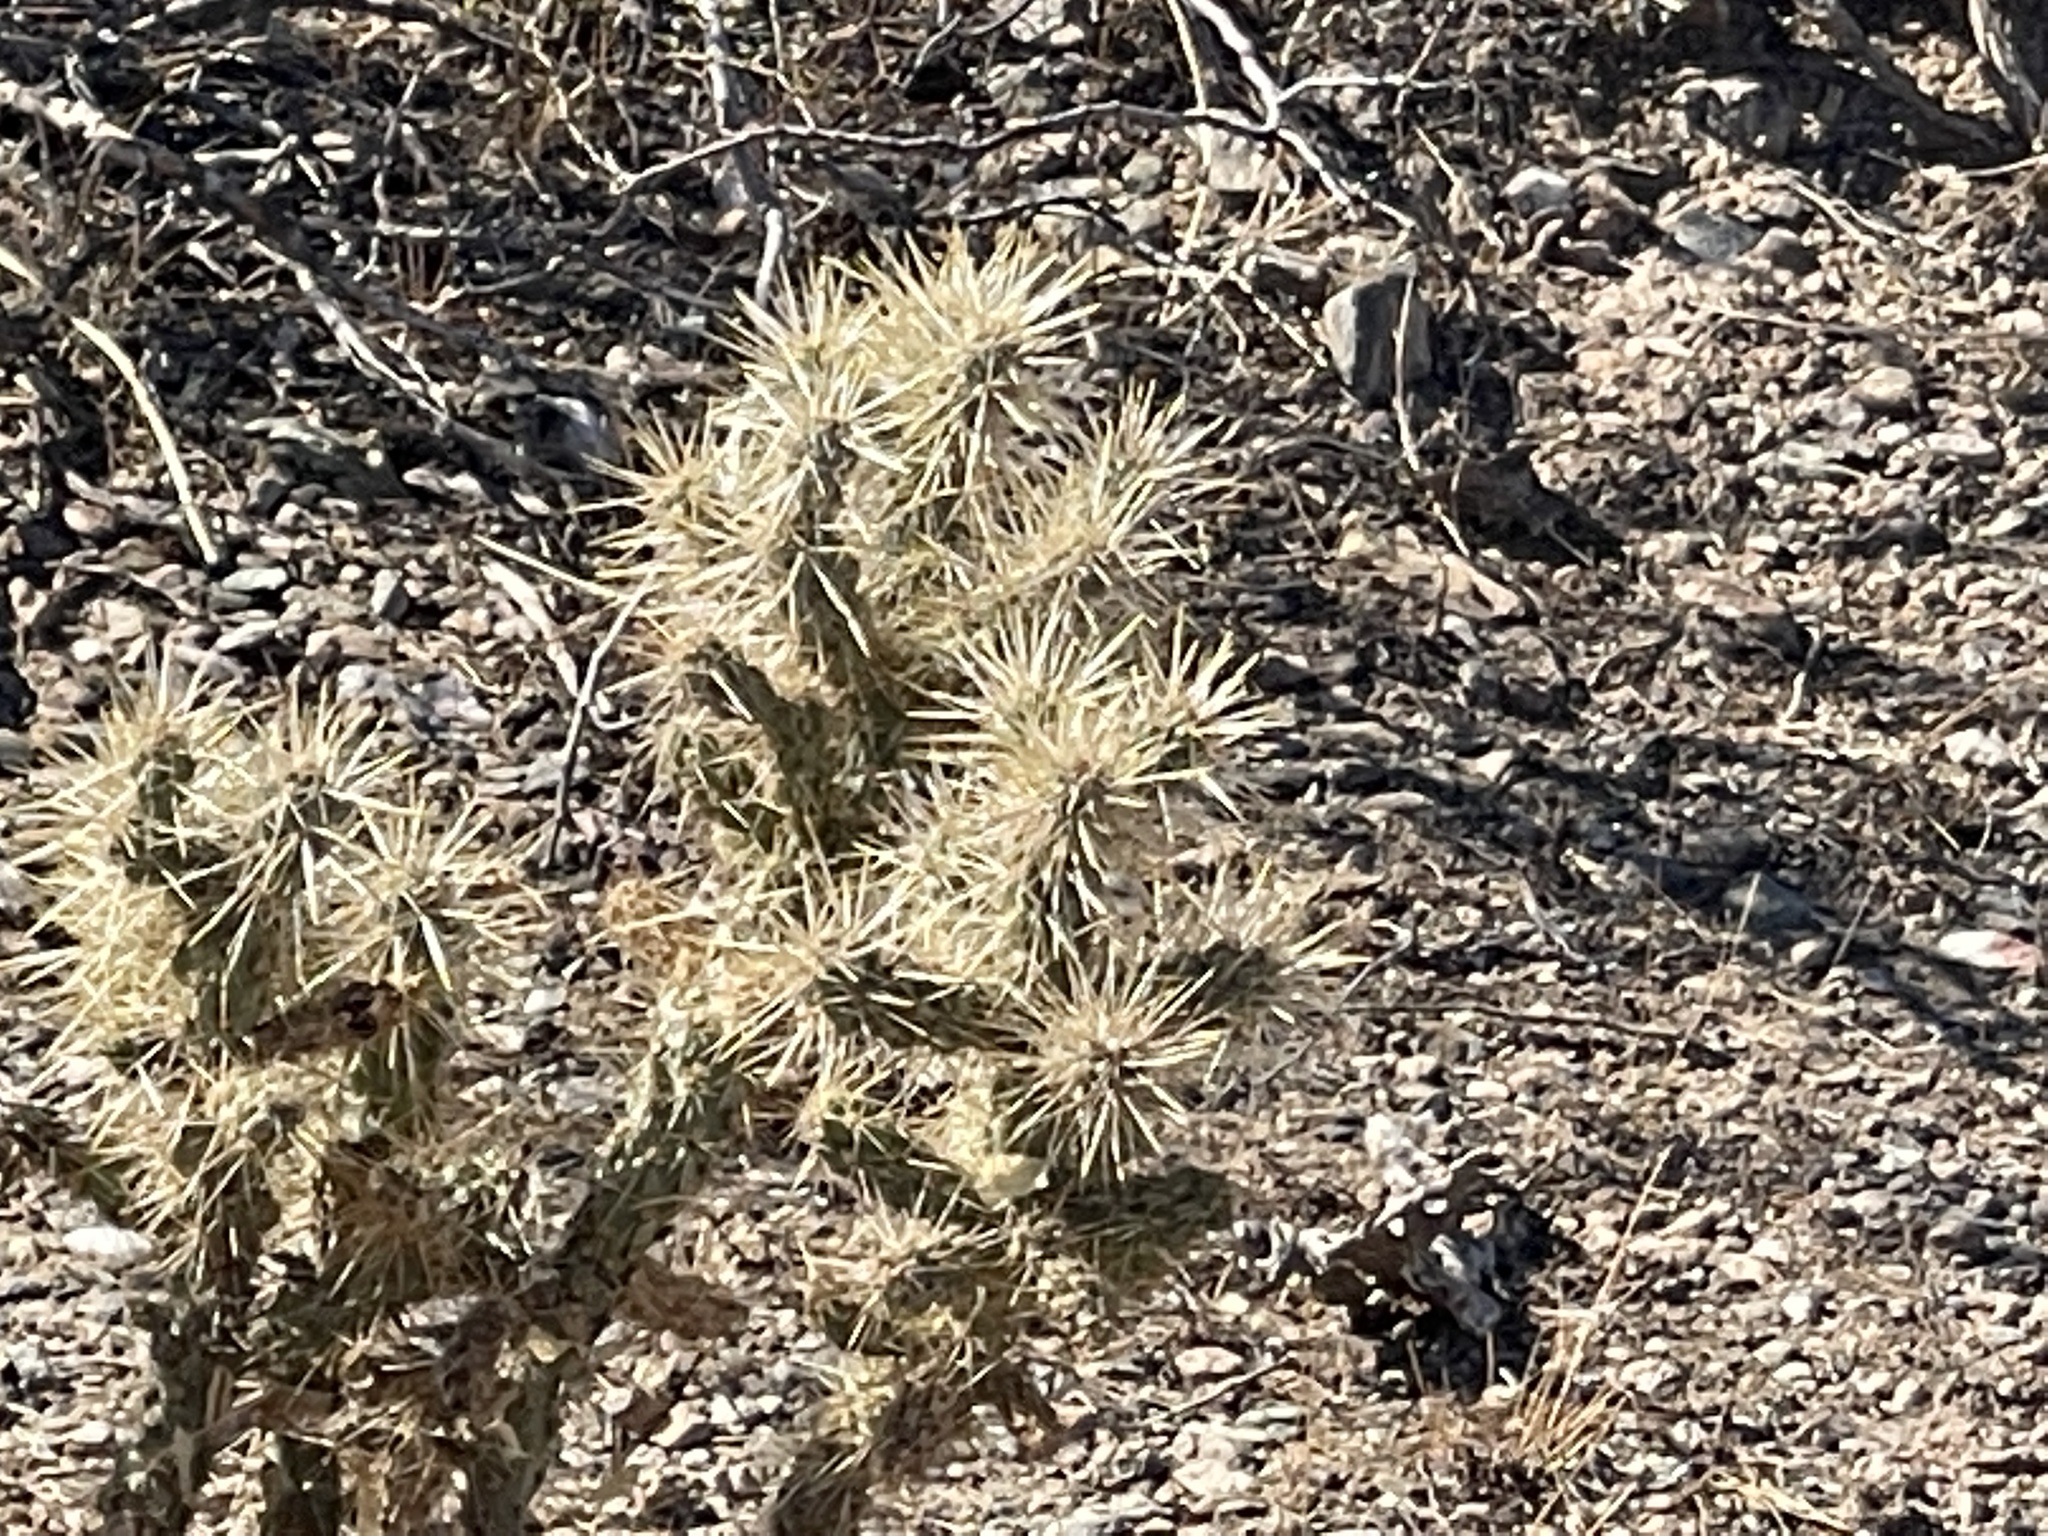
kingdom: Plantae
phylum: Tracheophyta
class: Magnoliopsida
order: Caryophyllales
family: Cactaceae
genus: Cylindropuntia
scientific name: Cylindropuntia acanthocarpa
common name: Buckhorn cholla
